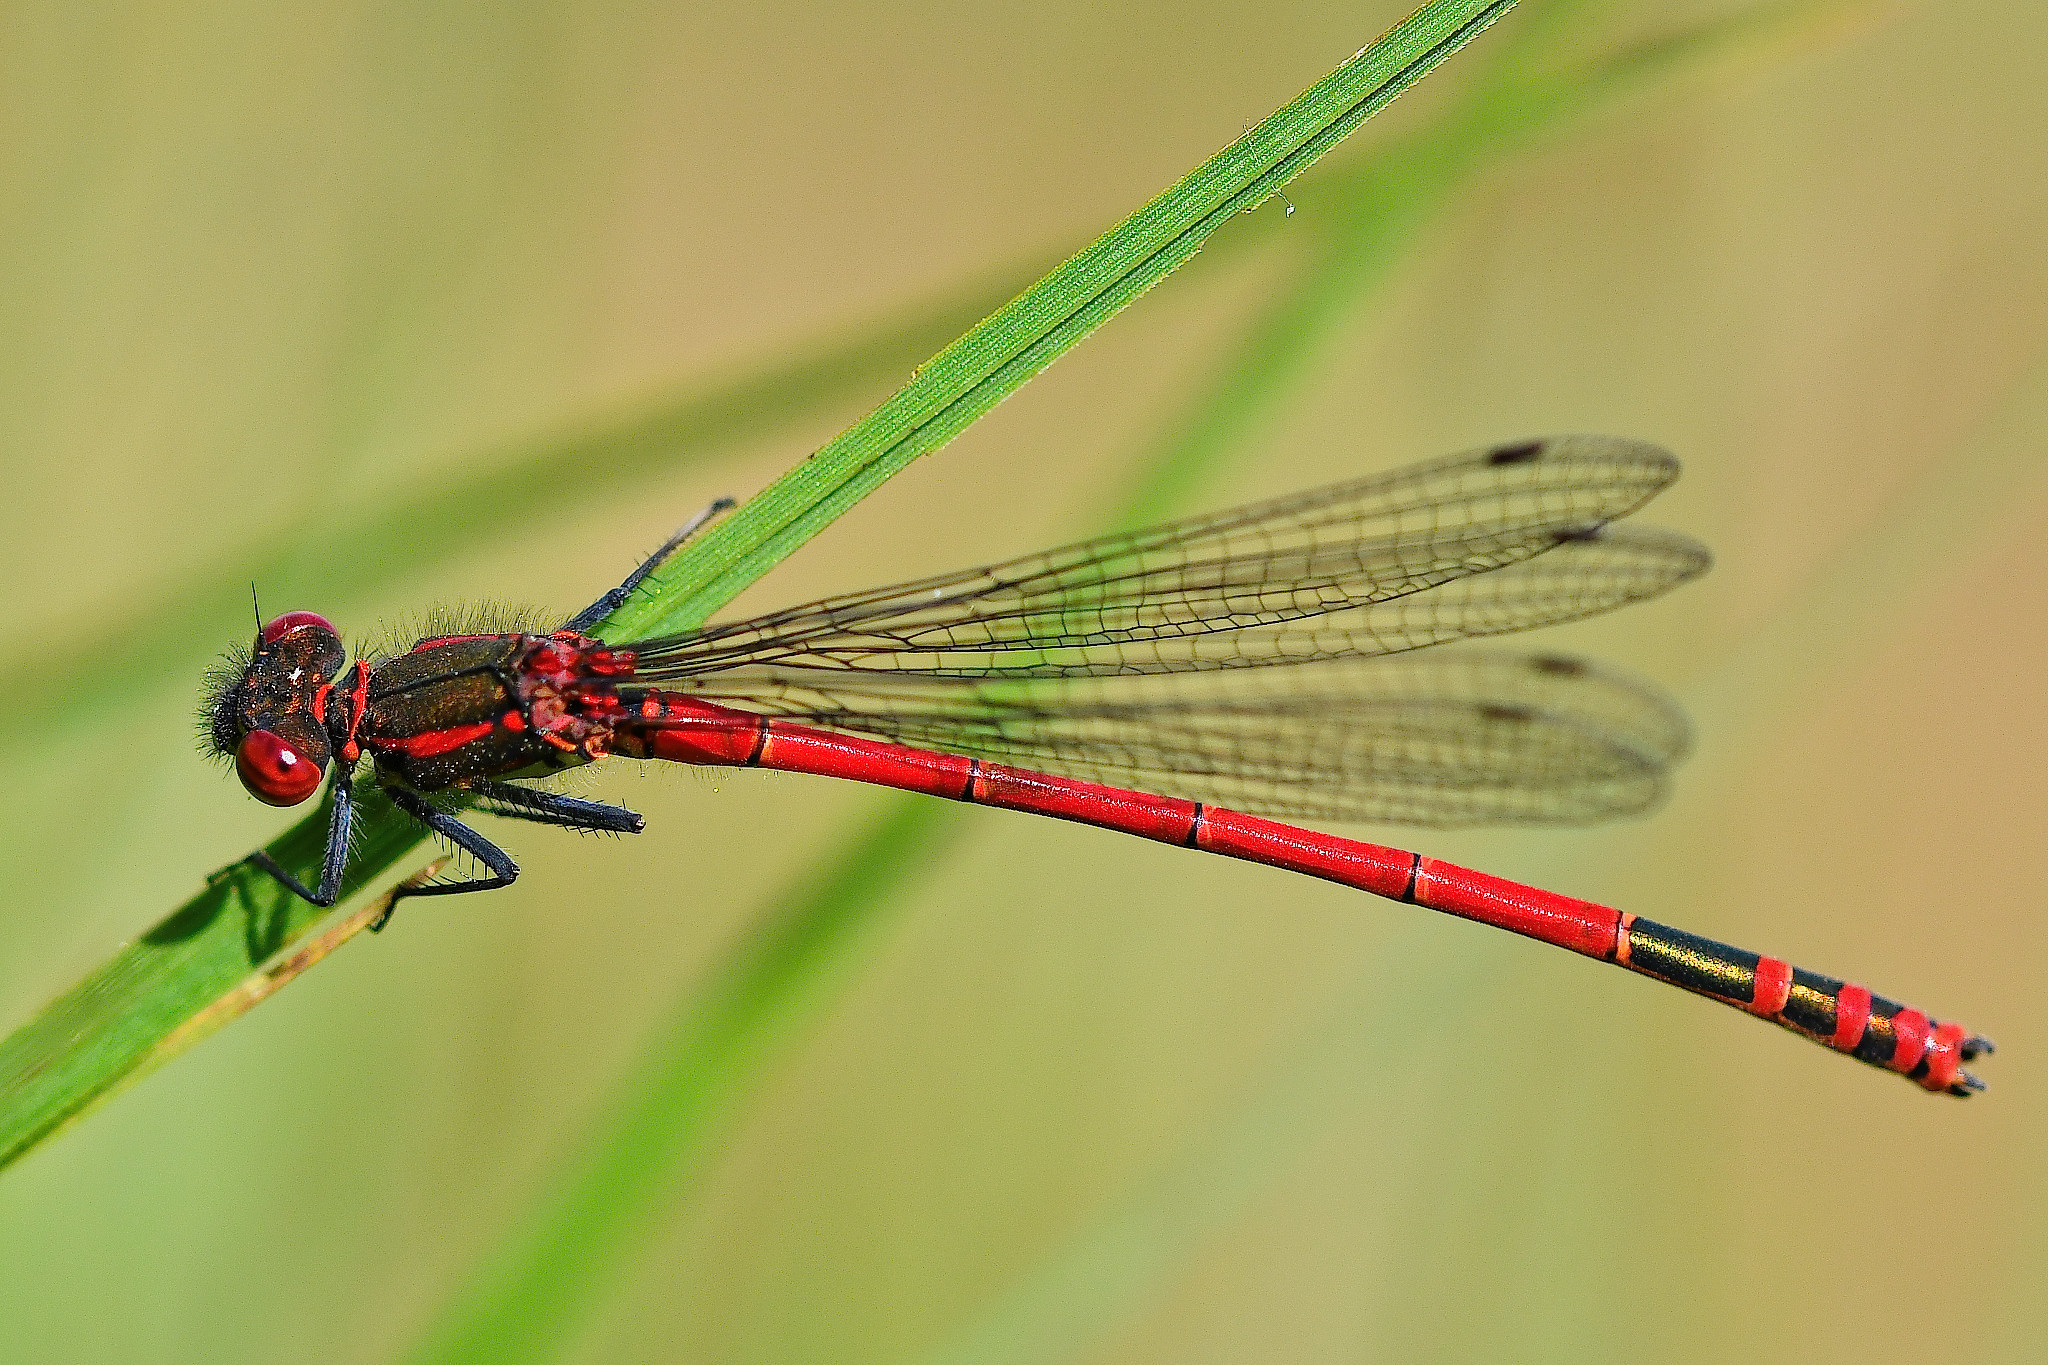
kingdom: Animalia
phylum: Arthropoda
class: Insecta
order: Odonata
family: Coenagrionidae
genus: Pyrrhosoma
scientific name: Pyrrhosoma nymphula
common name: Large red damsel
